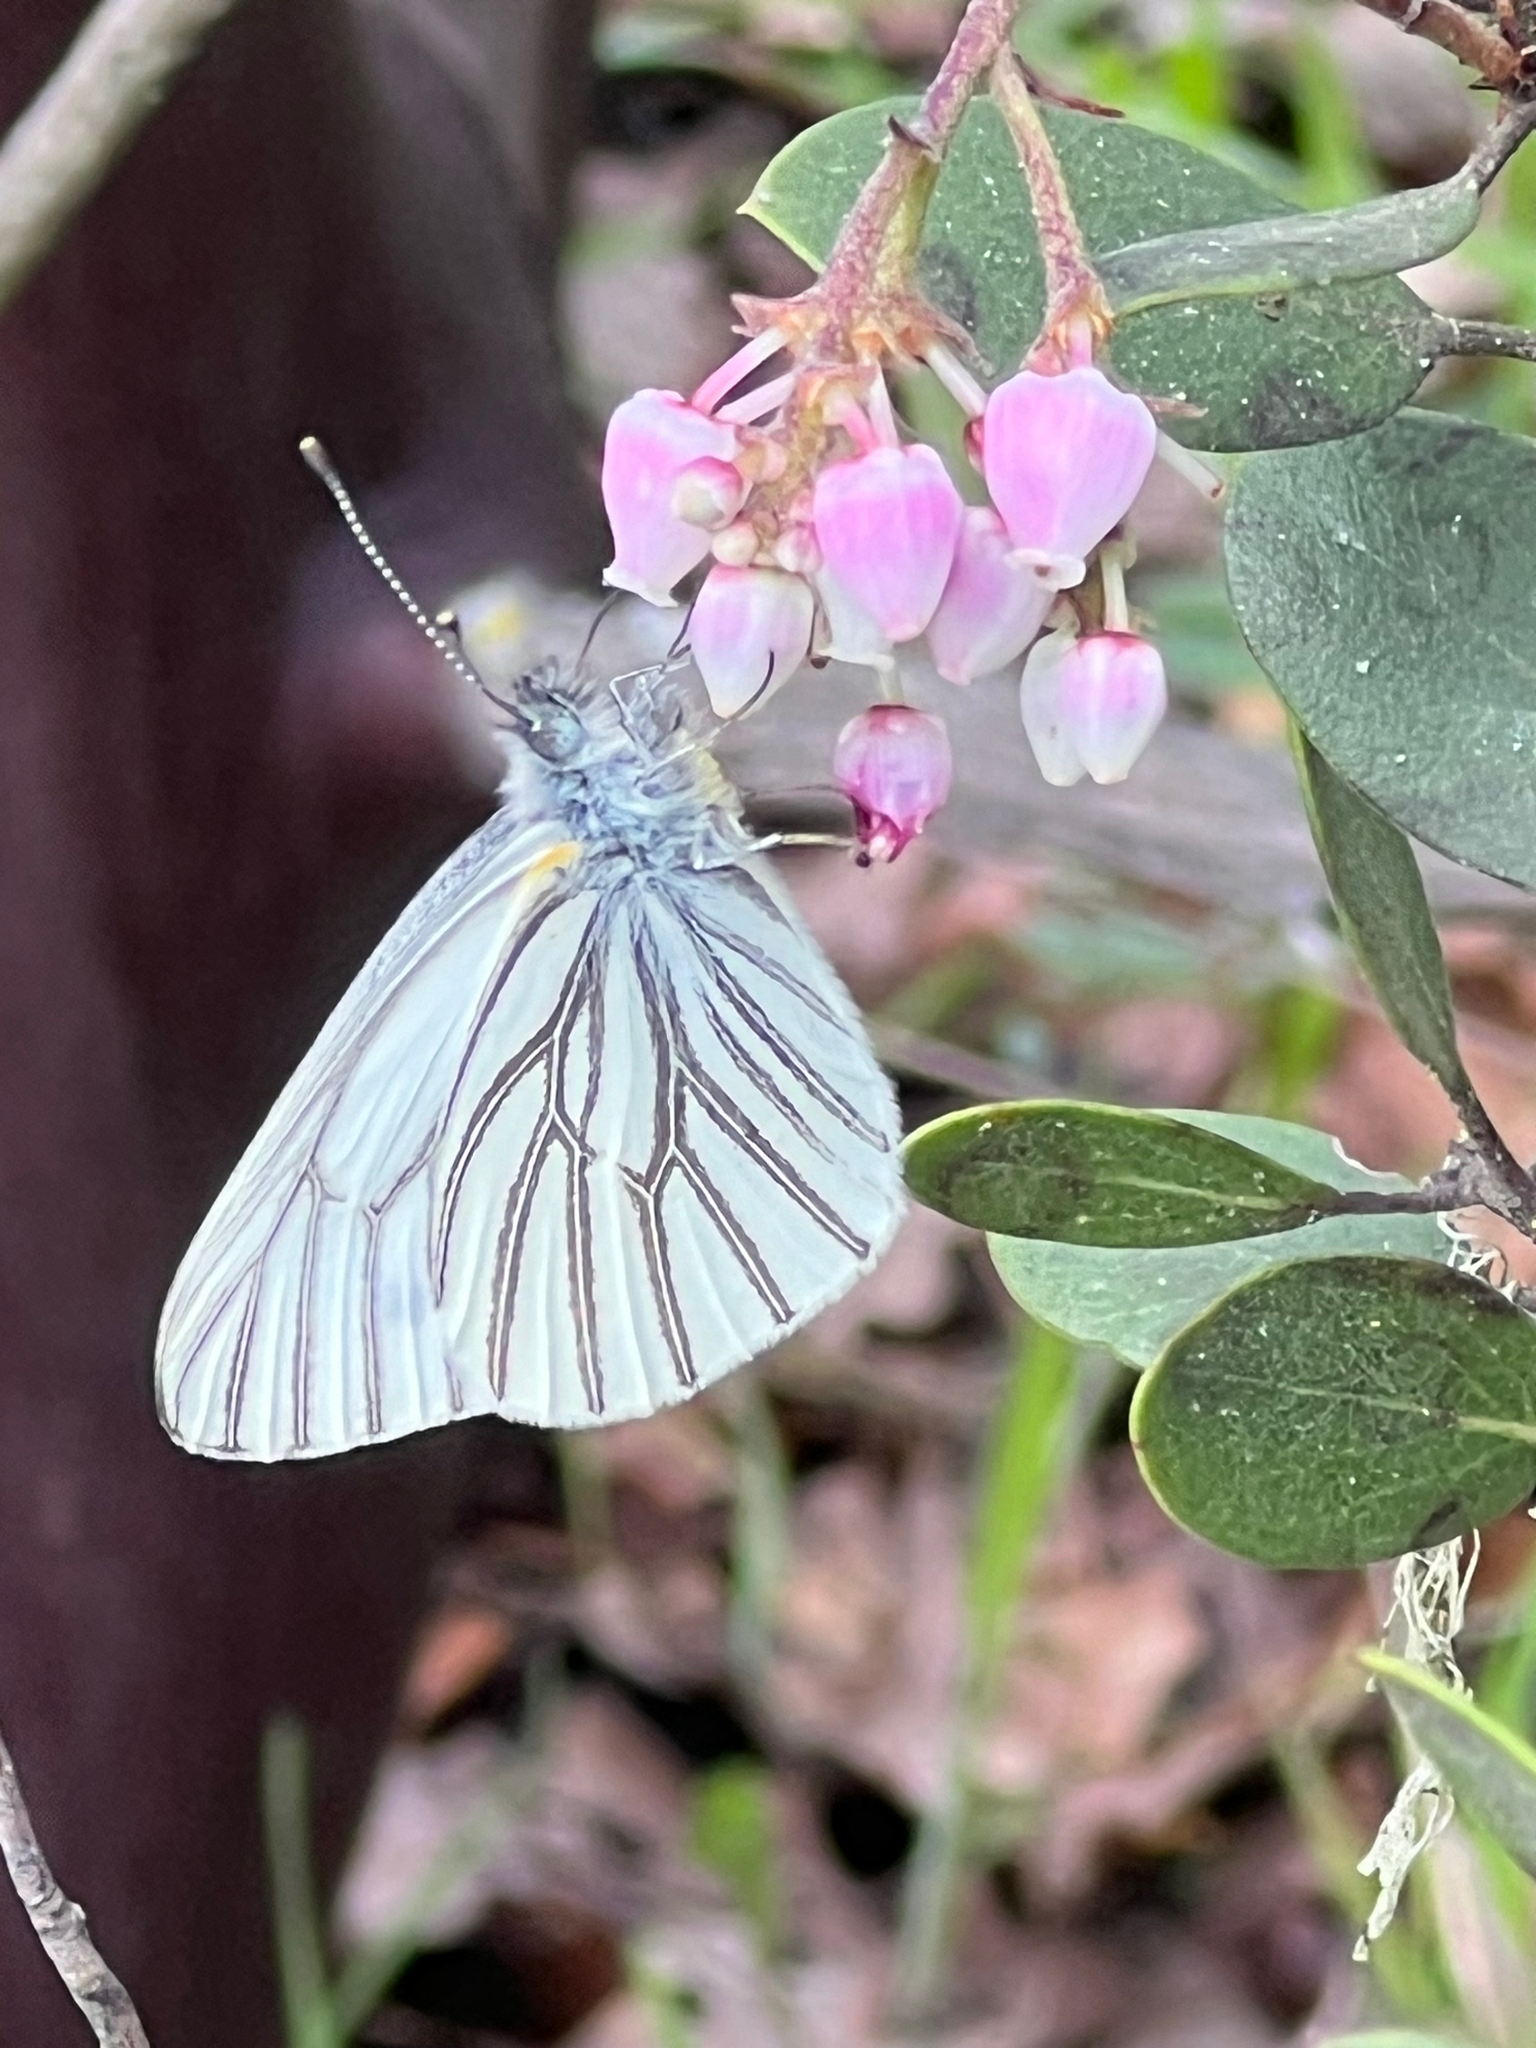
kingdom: Animalia
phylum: Arthropoda
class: Insecta
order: Lepidoptera
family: Pieridae
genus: Pieris
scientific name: Pieris marginalis
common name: Margined white
